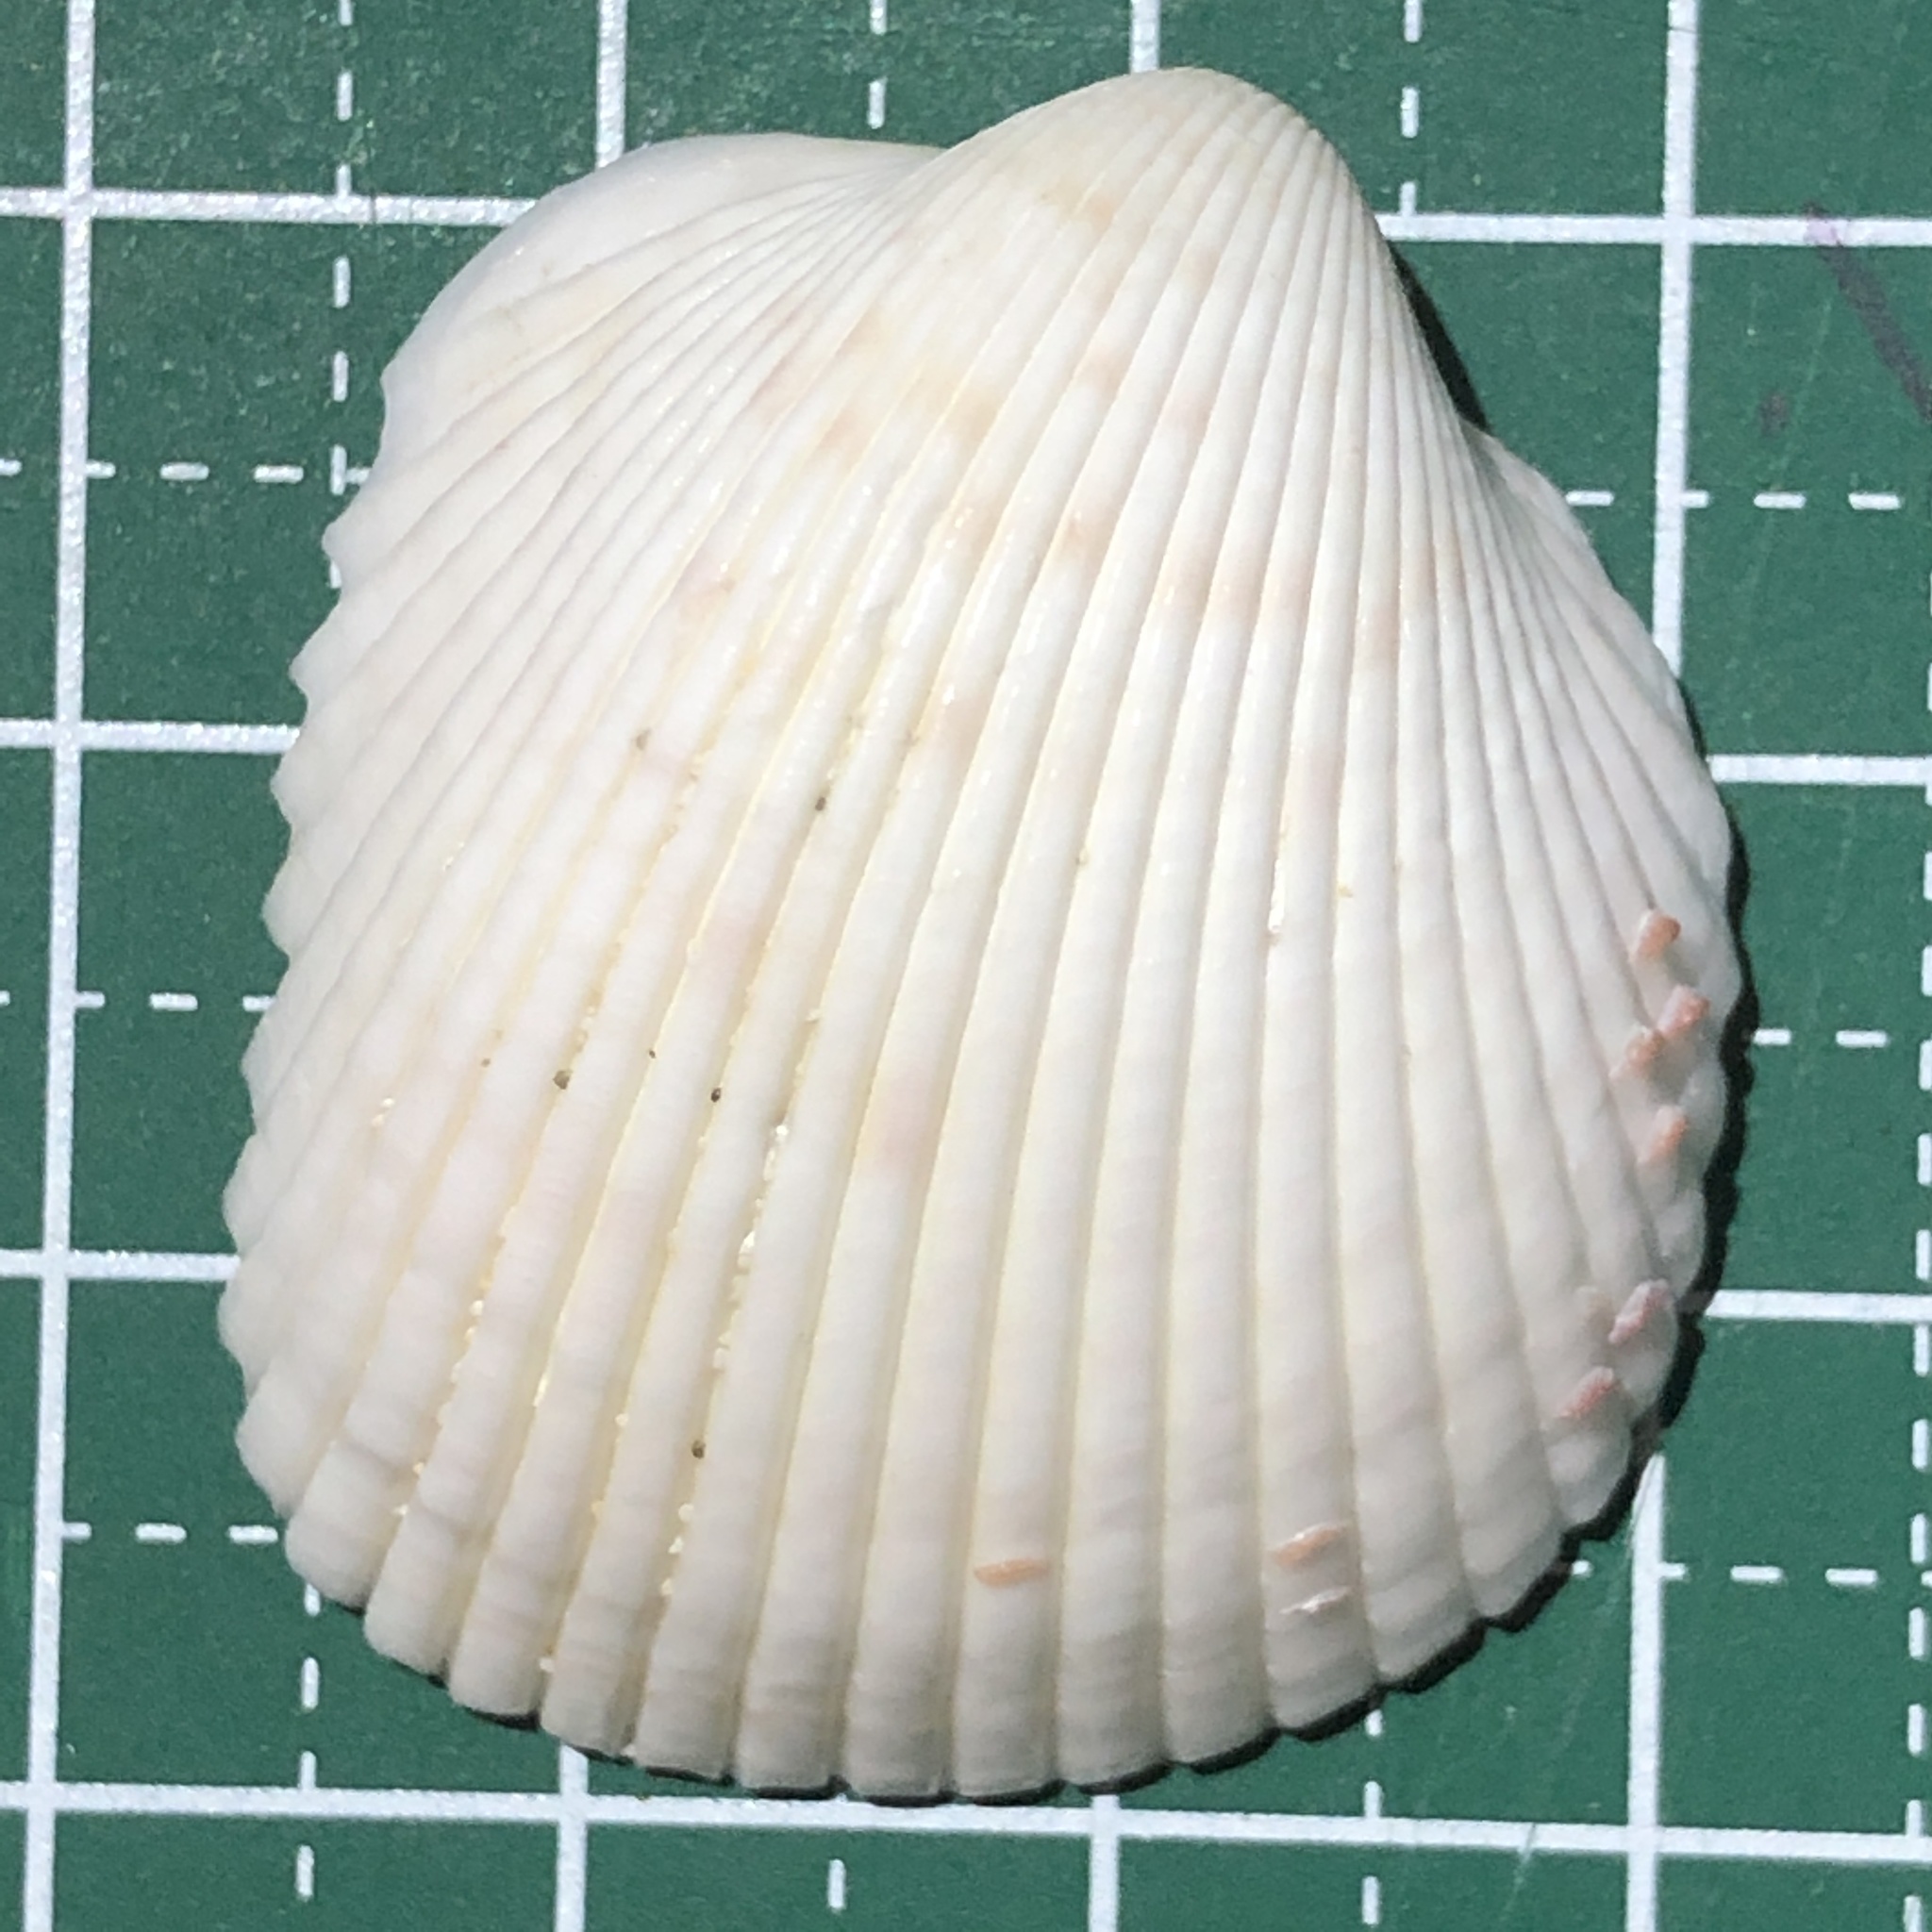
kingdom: Animalia
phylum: Mollusca
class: Bivalvia
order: Cardiida
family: Cardiidae
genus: Fragum
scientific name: Fragum unedo
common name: Strawberry cockle
